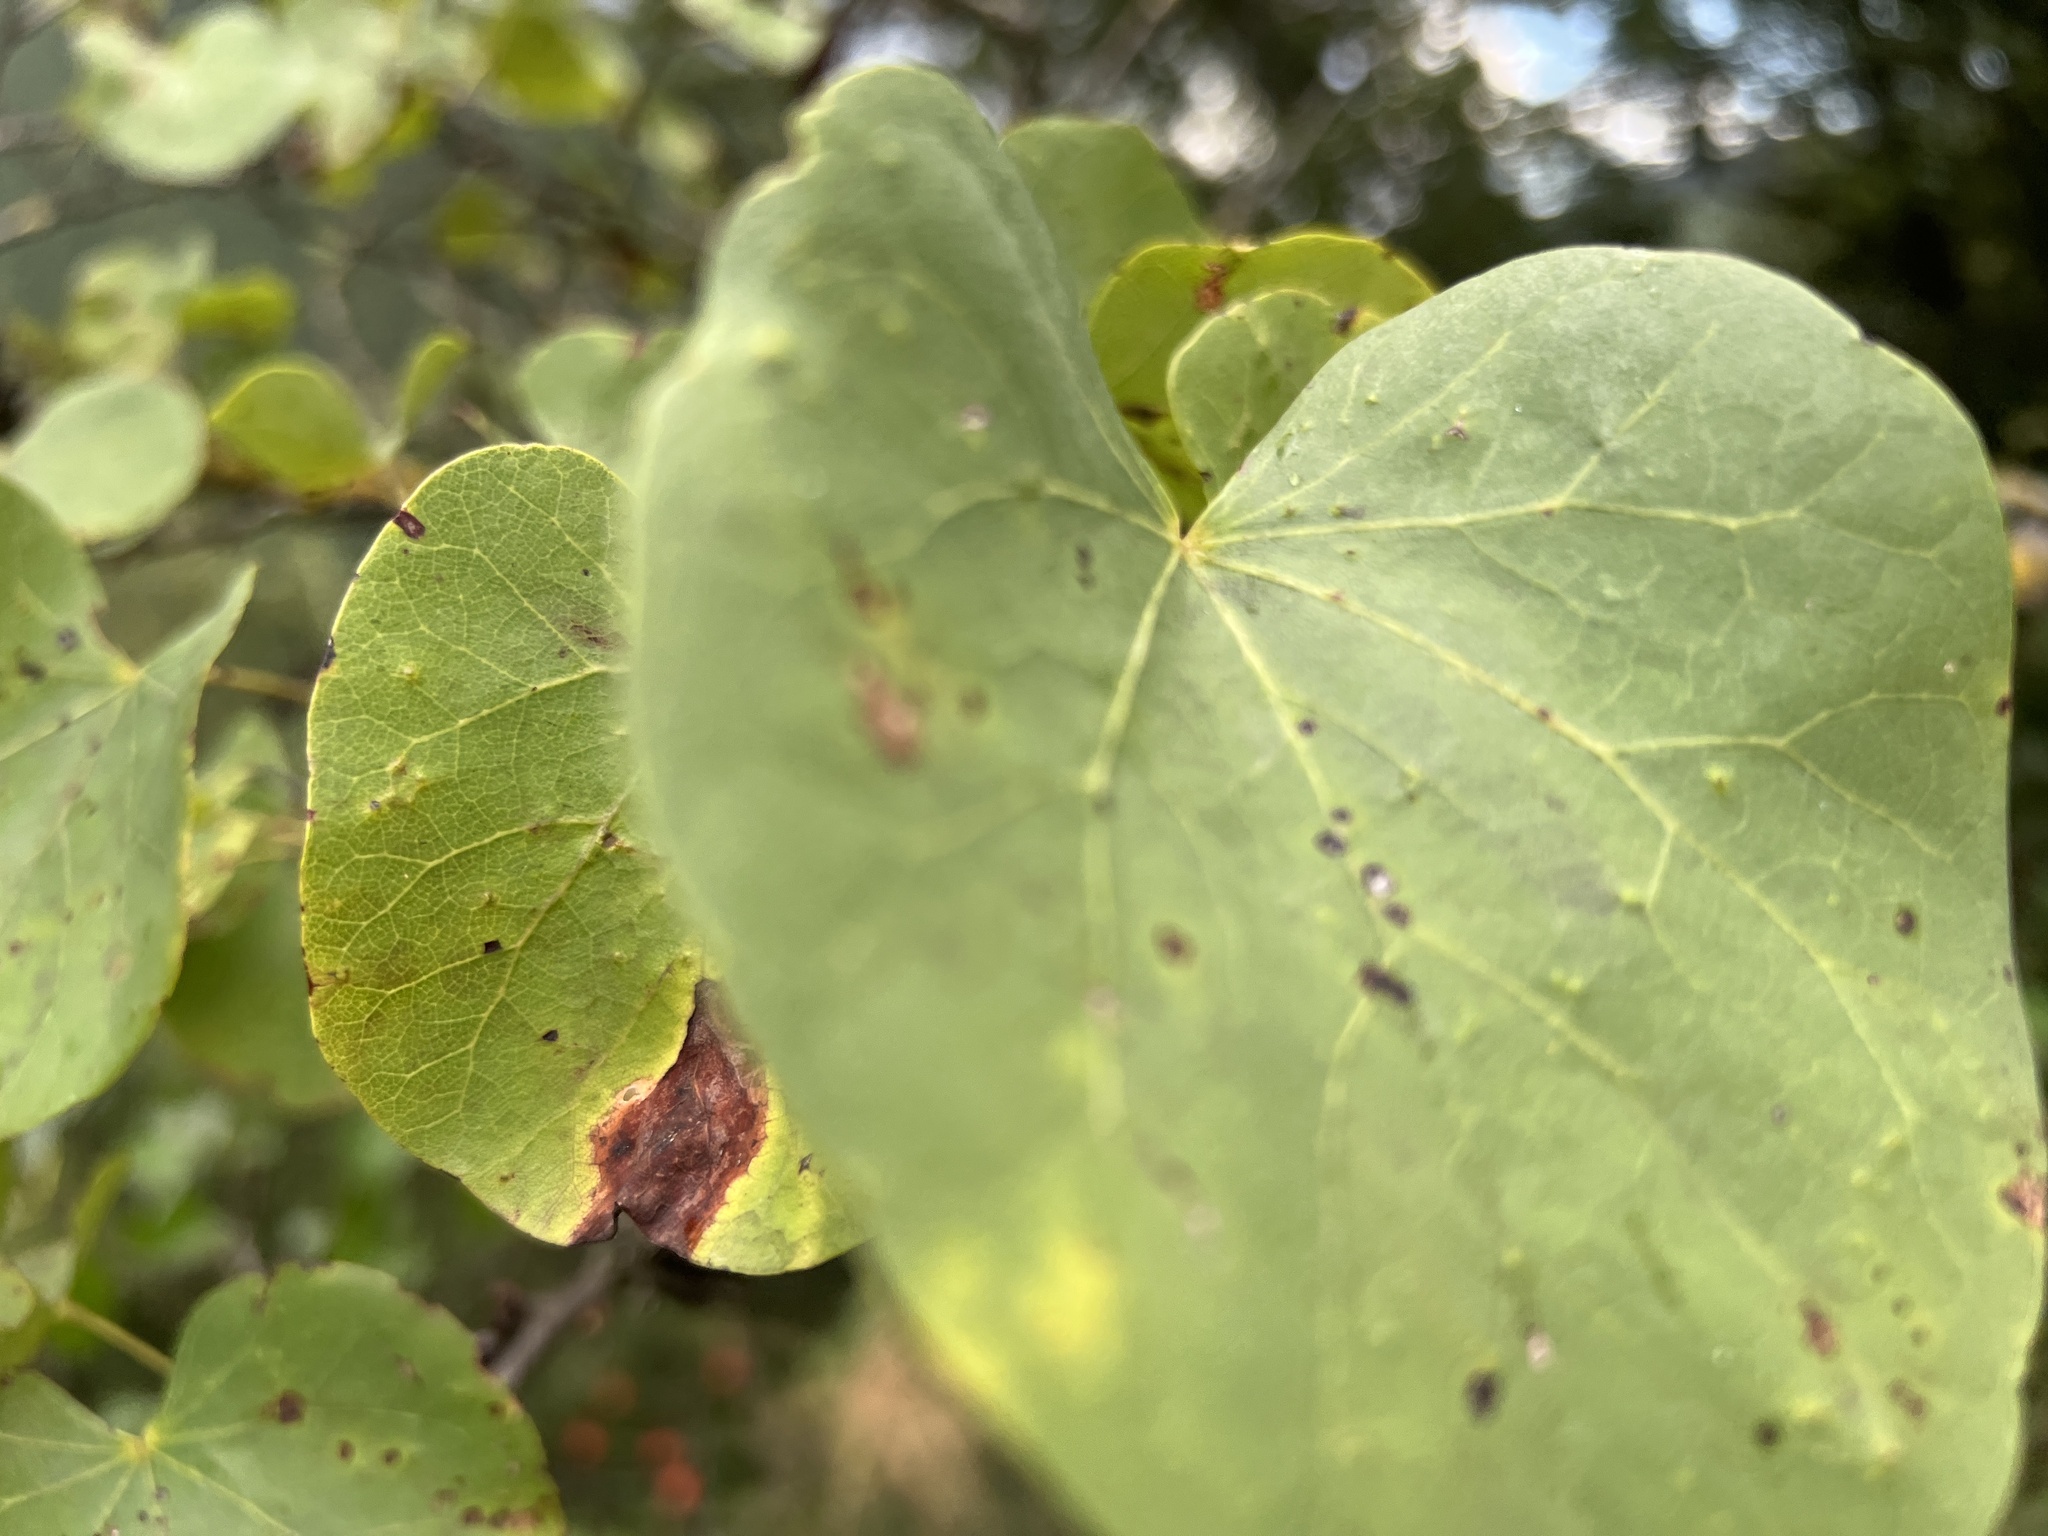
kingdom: Plantae
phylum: Tracheophyta
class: Magnoliopsida
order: Fabales
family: Fabaceae
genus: Cercis
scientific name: Cercis siliquastrum
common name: Judas tree
